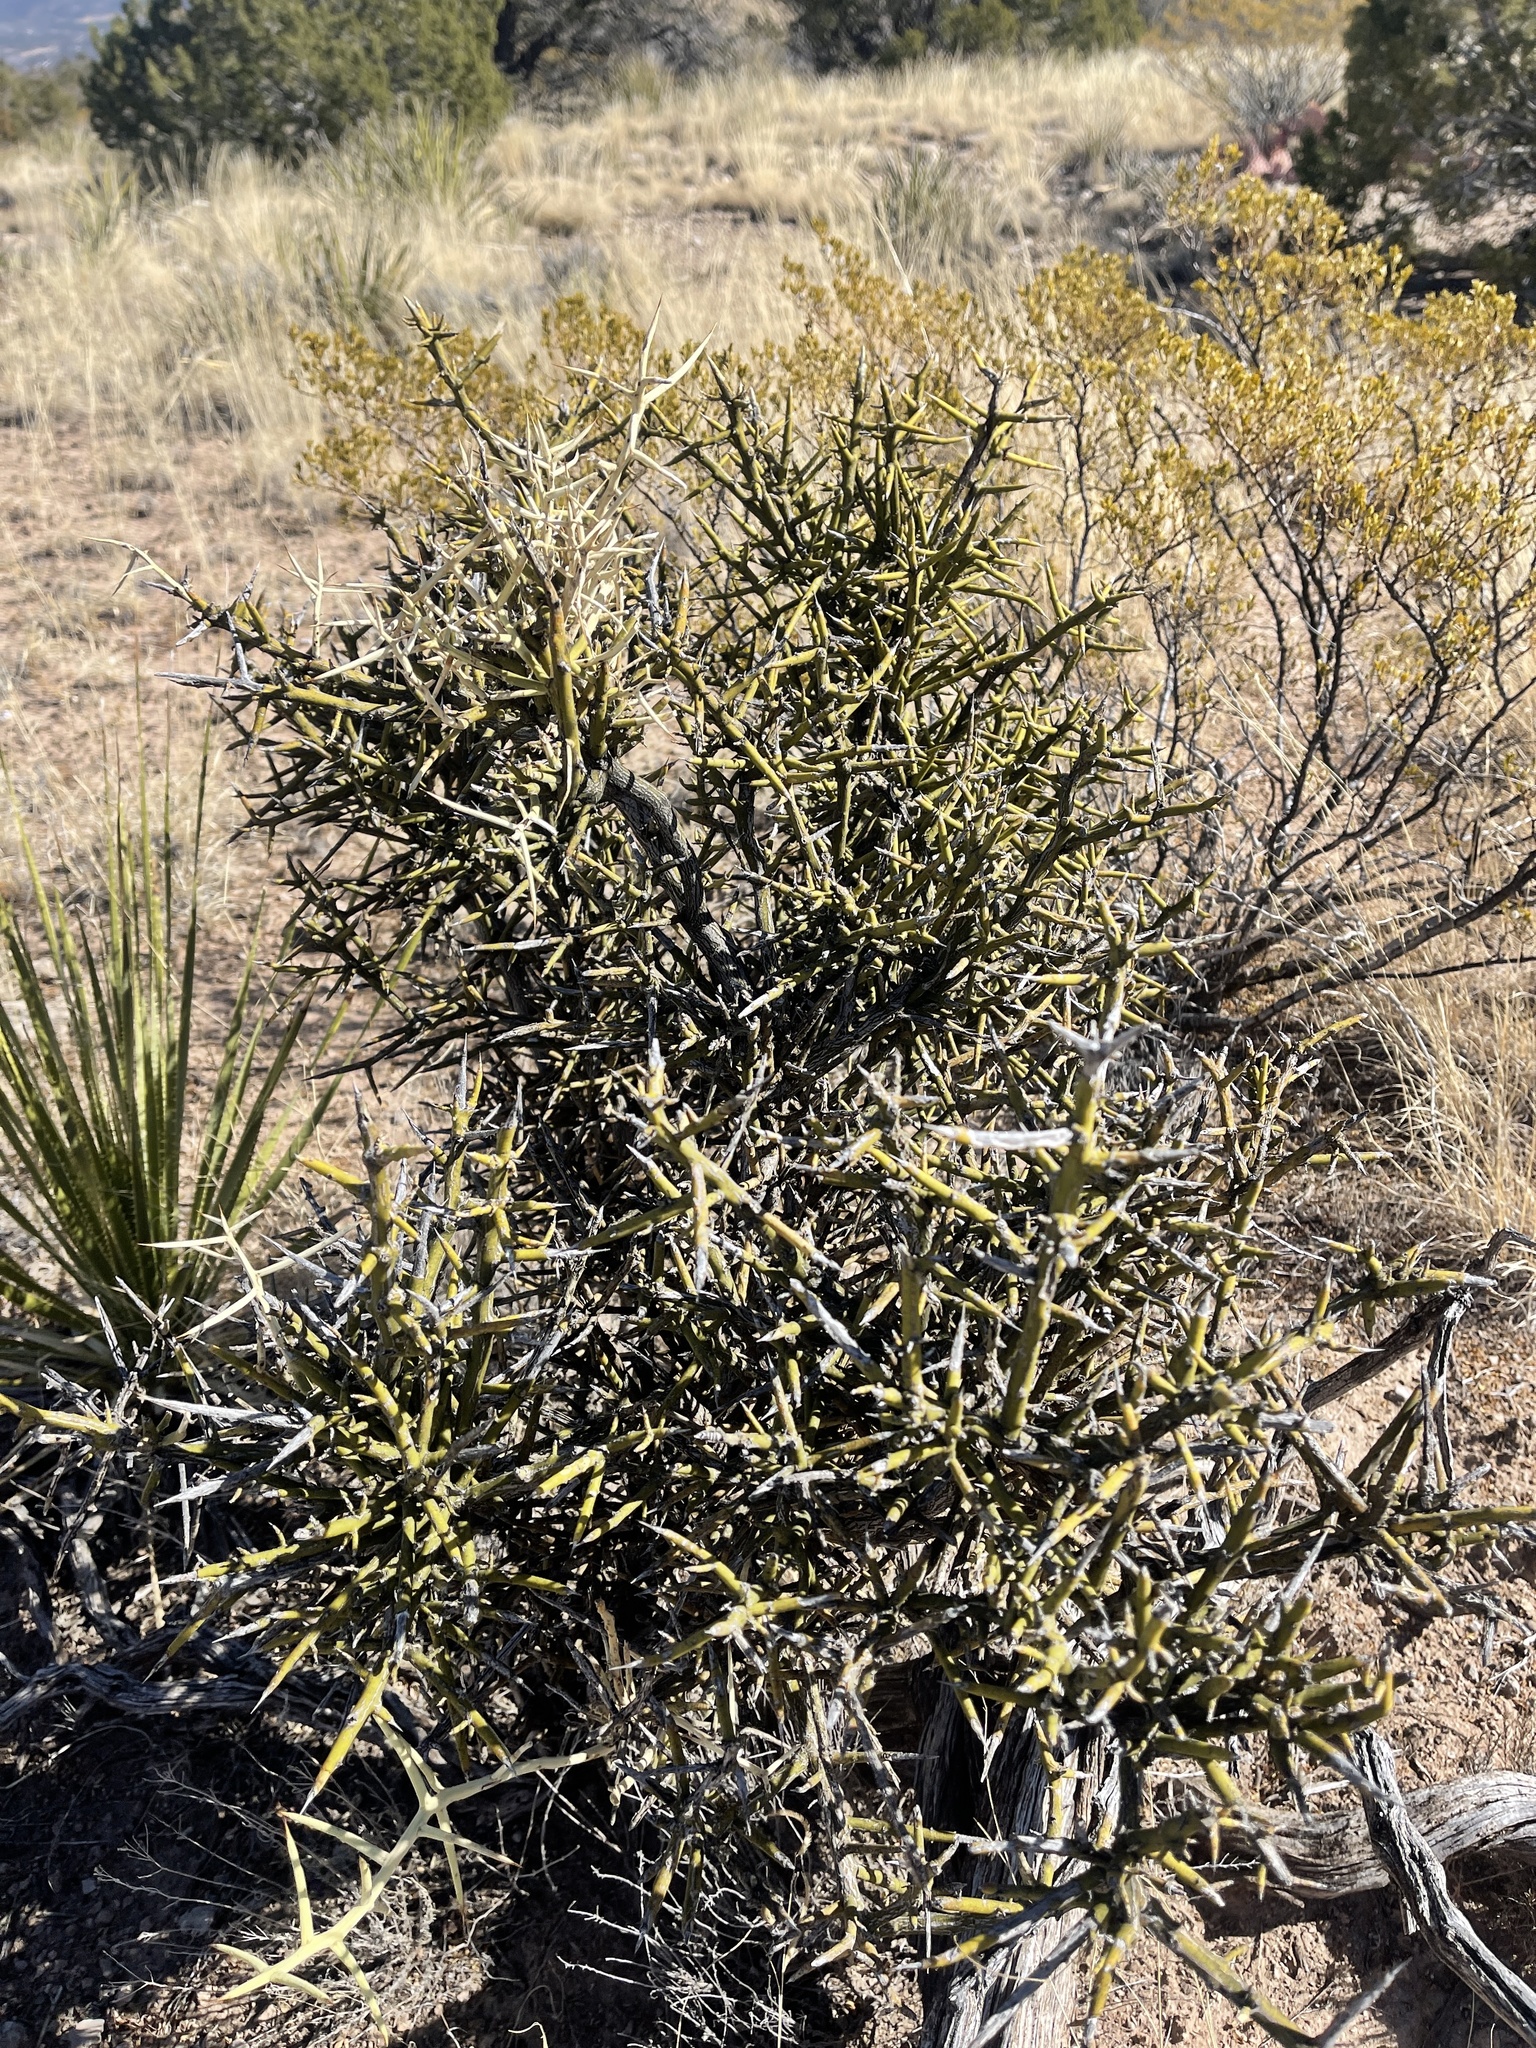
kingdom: Plantae
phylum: Tracheophyta
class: Magnoliopsida
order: Brassicales
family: Koeberliniaceae
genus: Koeberlinia
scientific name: Koeberlinia spinosa
